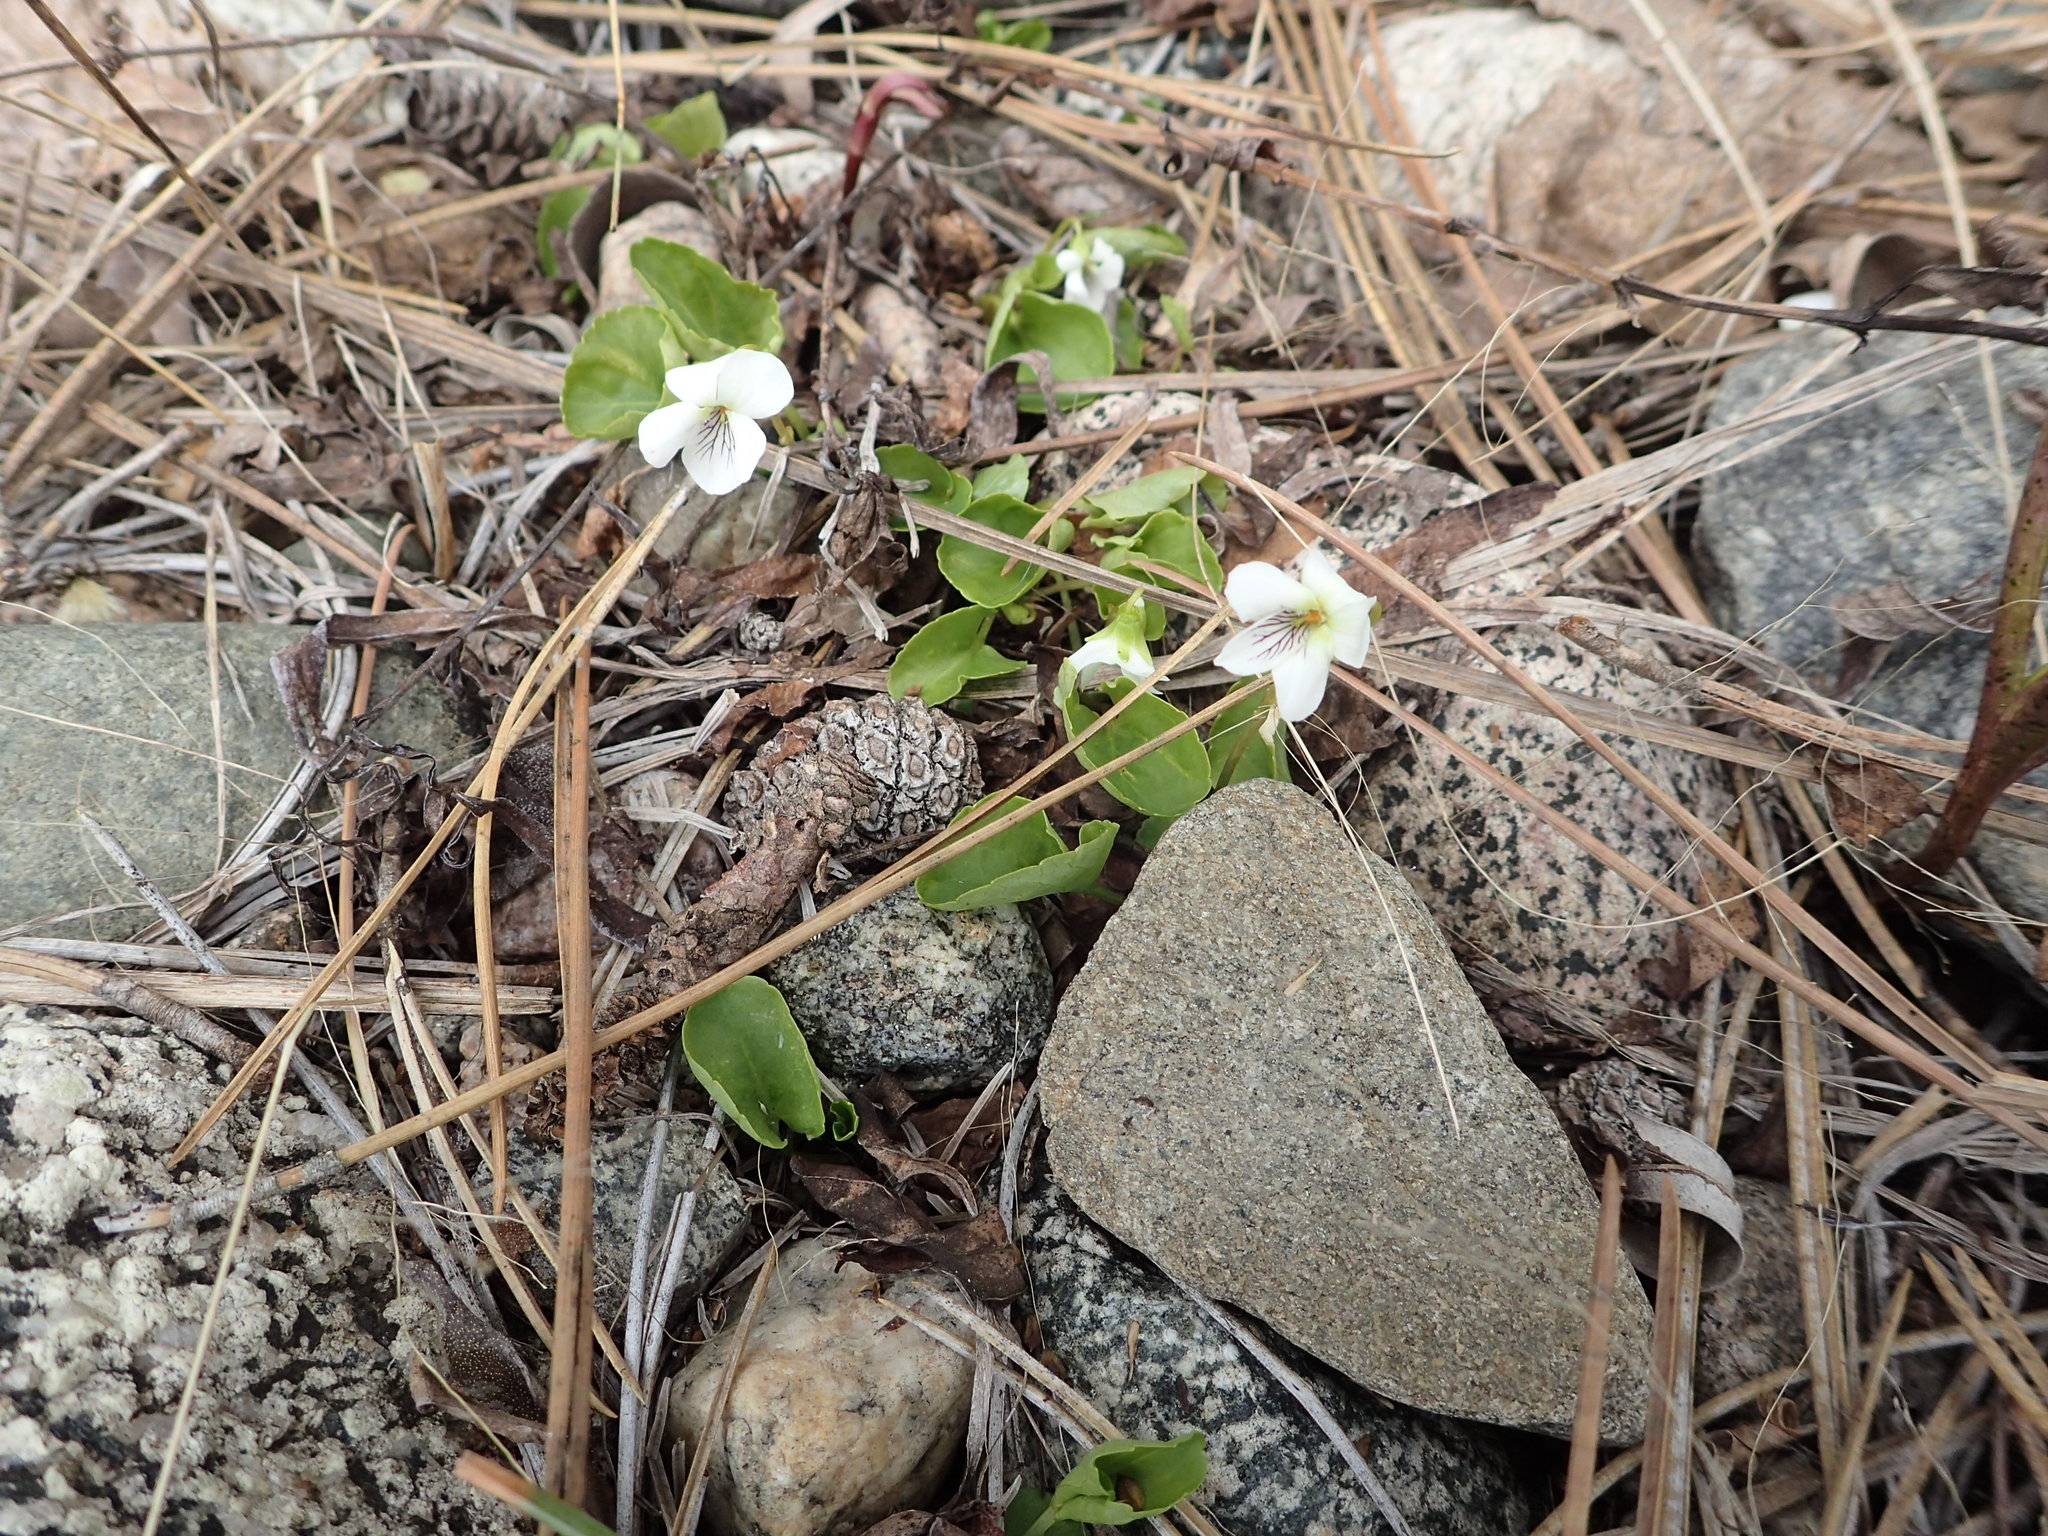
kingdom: Plantae
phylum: Tracheophyta
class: Magnoliopsida
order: Malpighiales
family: Violaceae
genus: Viola
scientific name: Viola minuscula
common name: Northern white violet
